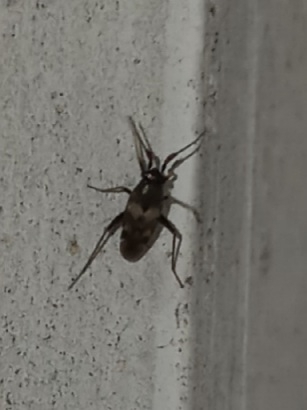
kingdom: Animalia
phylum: Arthropoda
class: Insecta
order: Hemiptera
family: Miridae
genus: Spanagonicus
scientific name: Spanagonicus albofasciatus
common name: Whitemarked fleahopper
